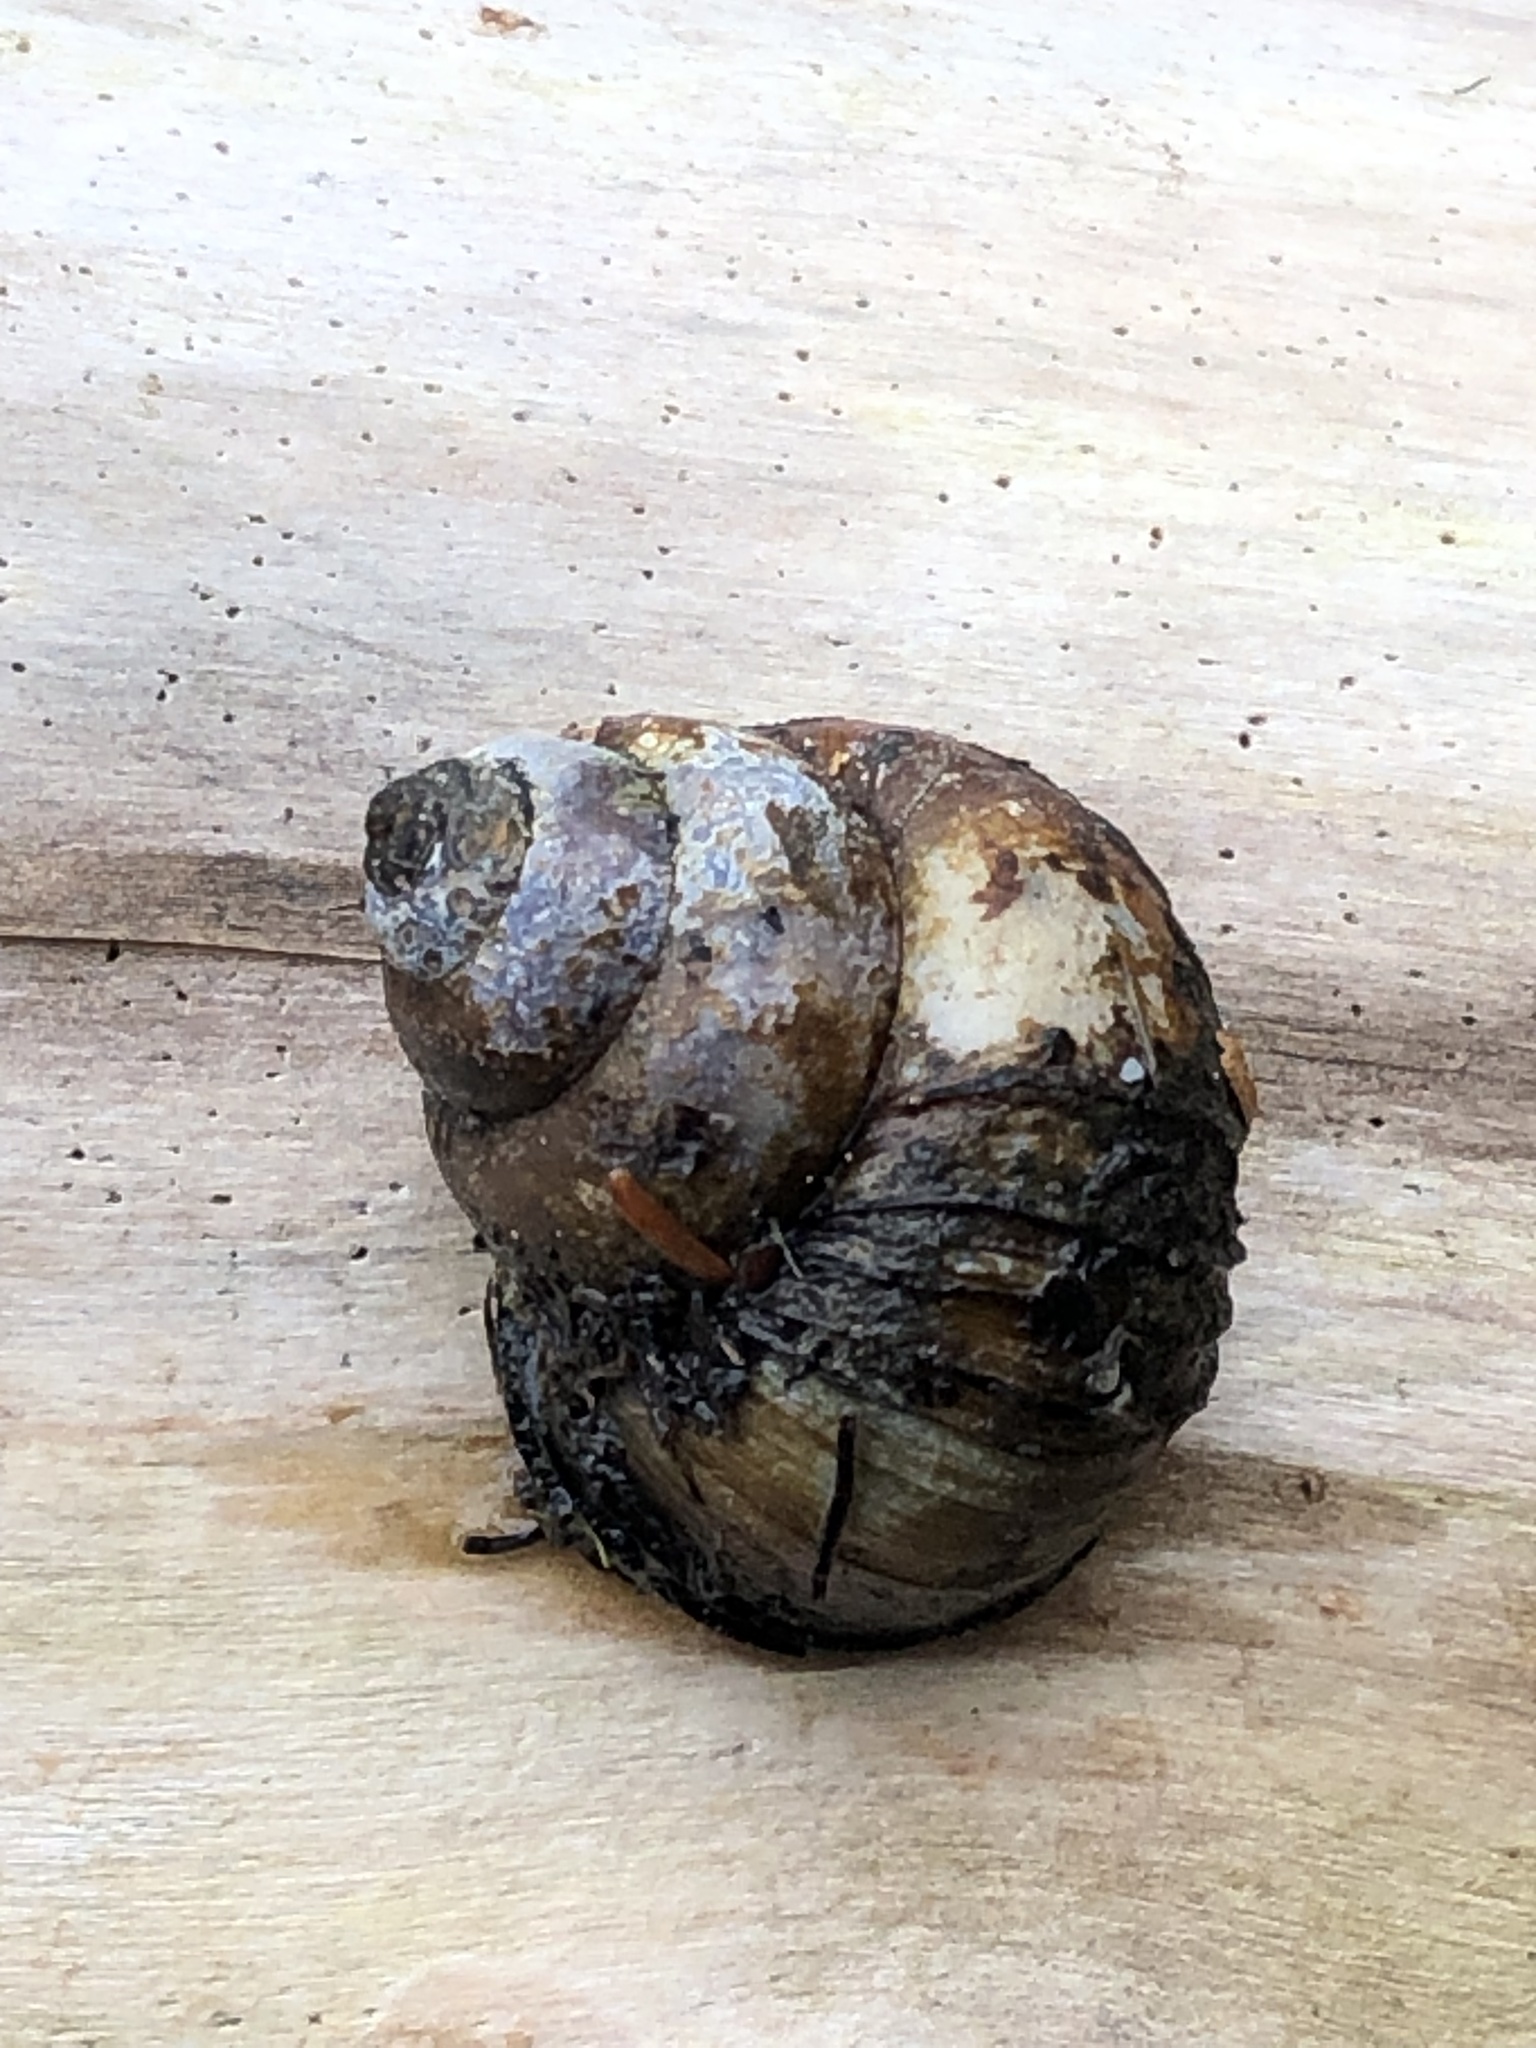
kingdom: Animalia
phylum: Mollusca
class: Gastropoda
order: Architaenioglossa
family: Viviparidae
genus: Cipangopaludina
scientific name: Cipangopaludina chinensis
